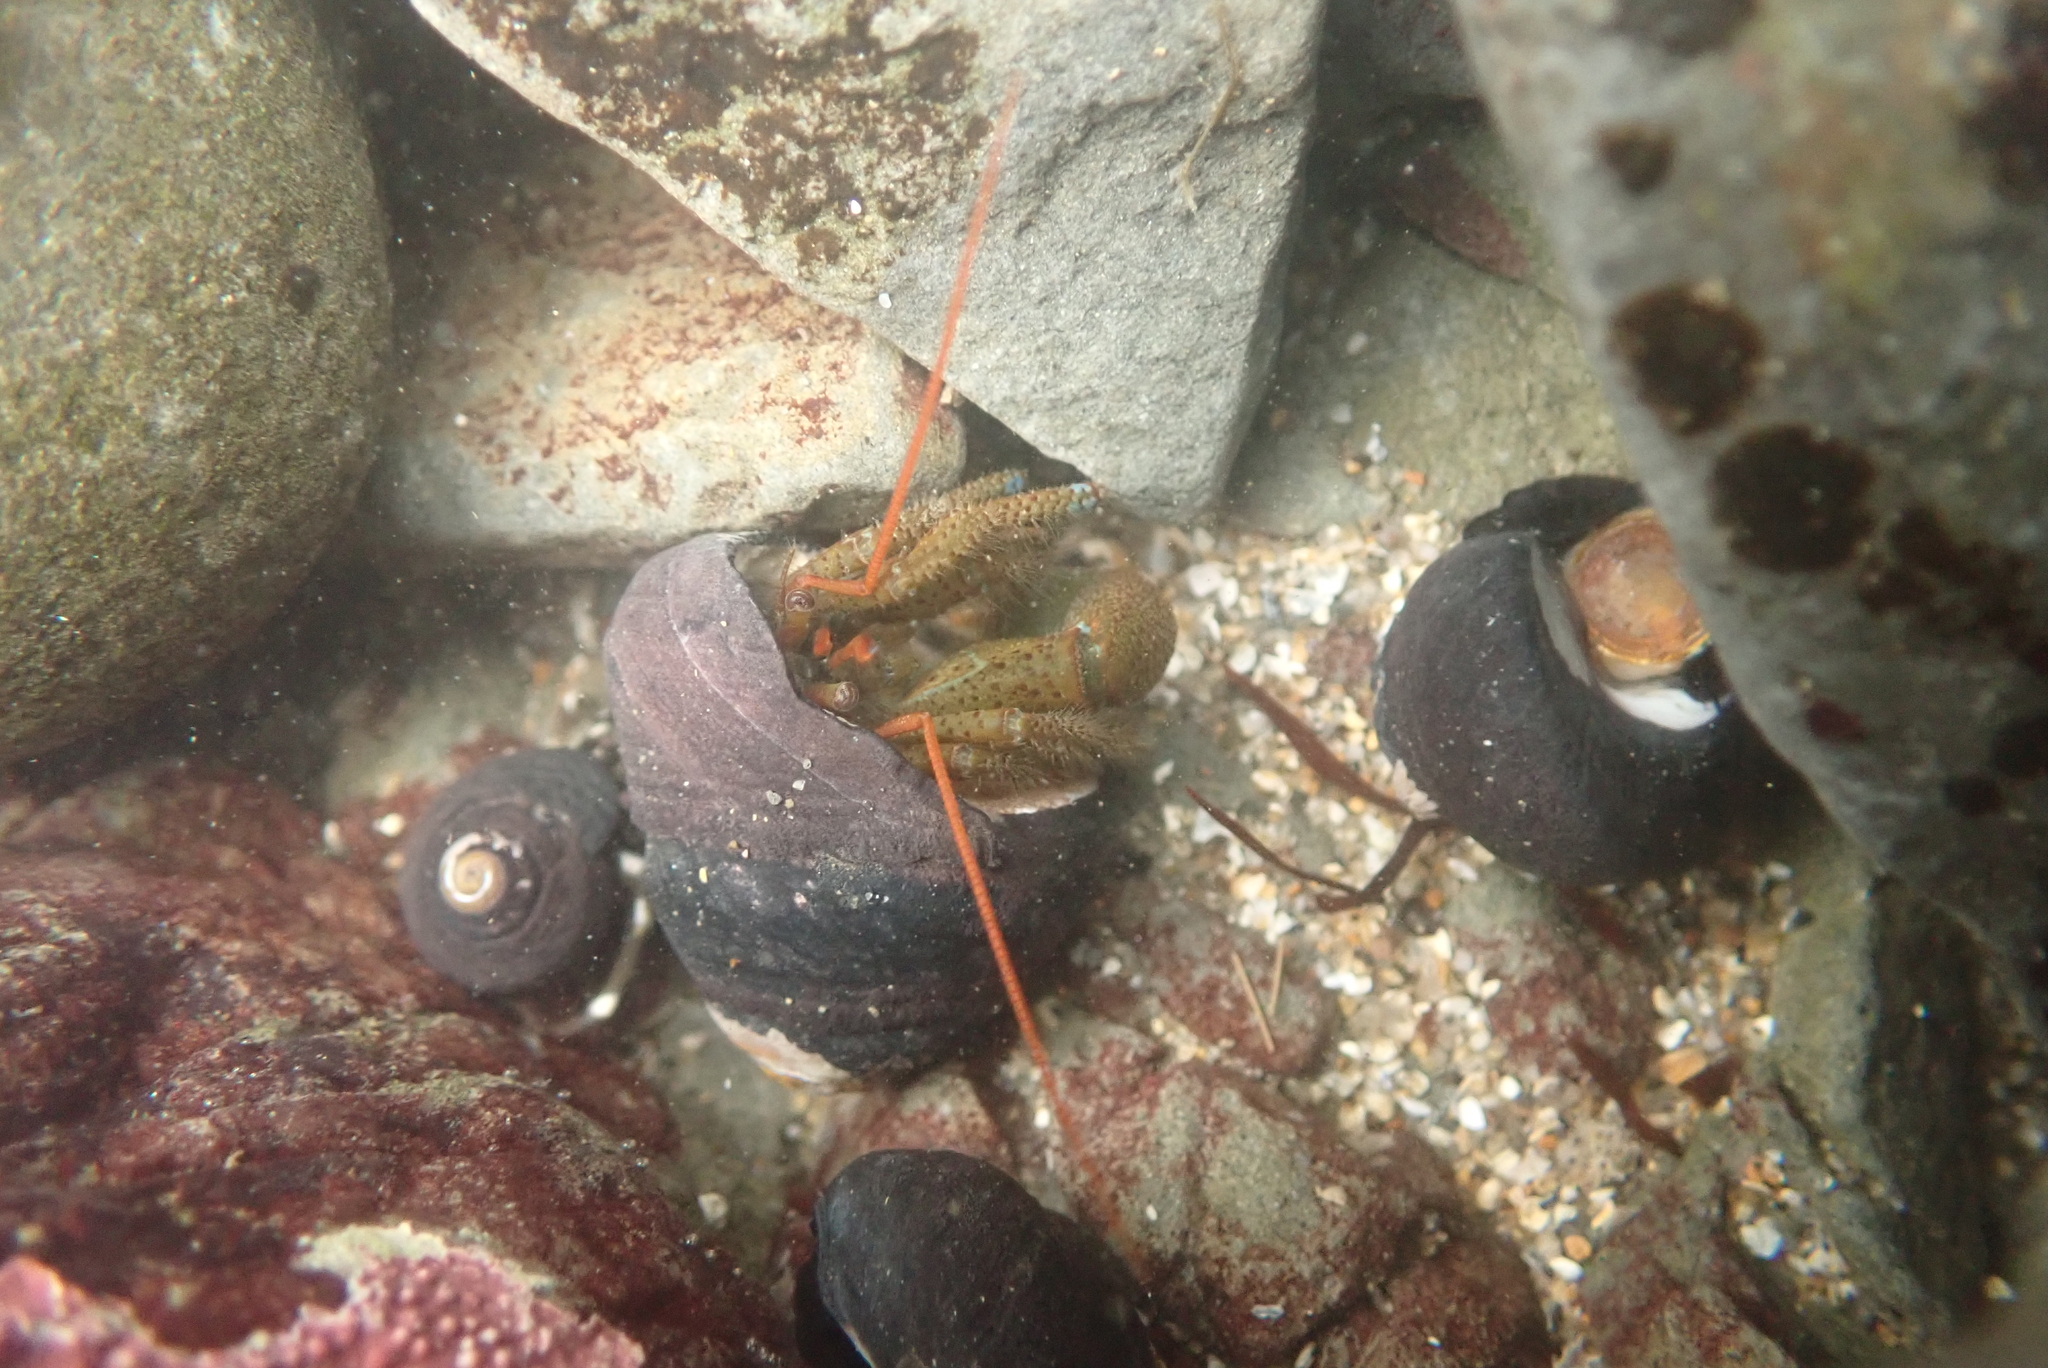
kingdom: Animalia
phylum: Arthropoda
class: Malacostraca
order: Decapoda
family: Paguridae
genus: Pagurus
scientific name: Pagurus samuelis
